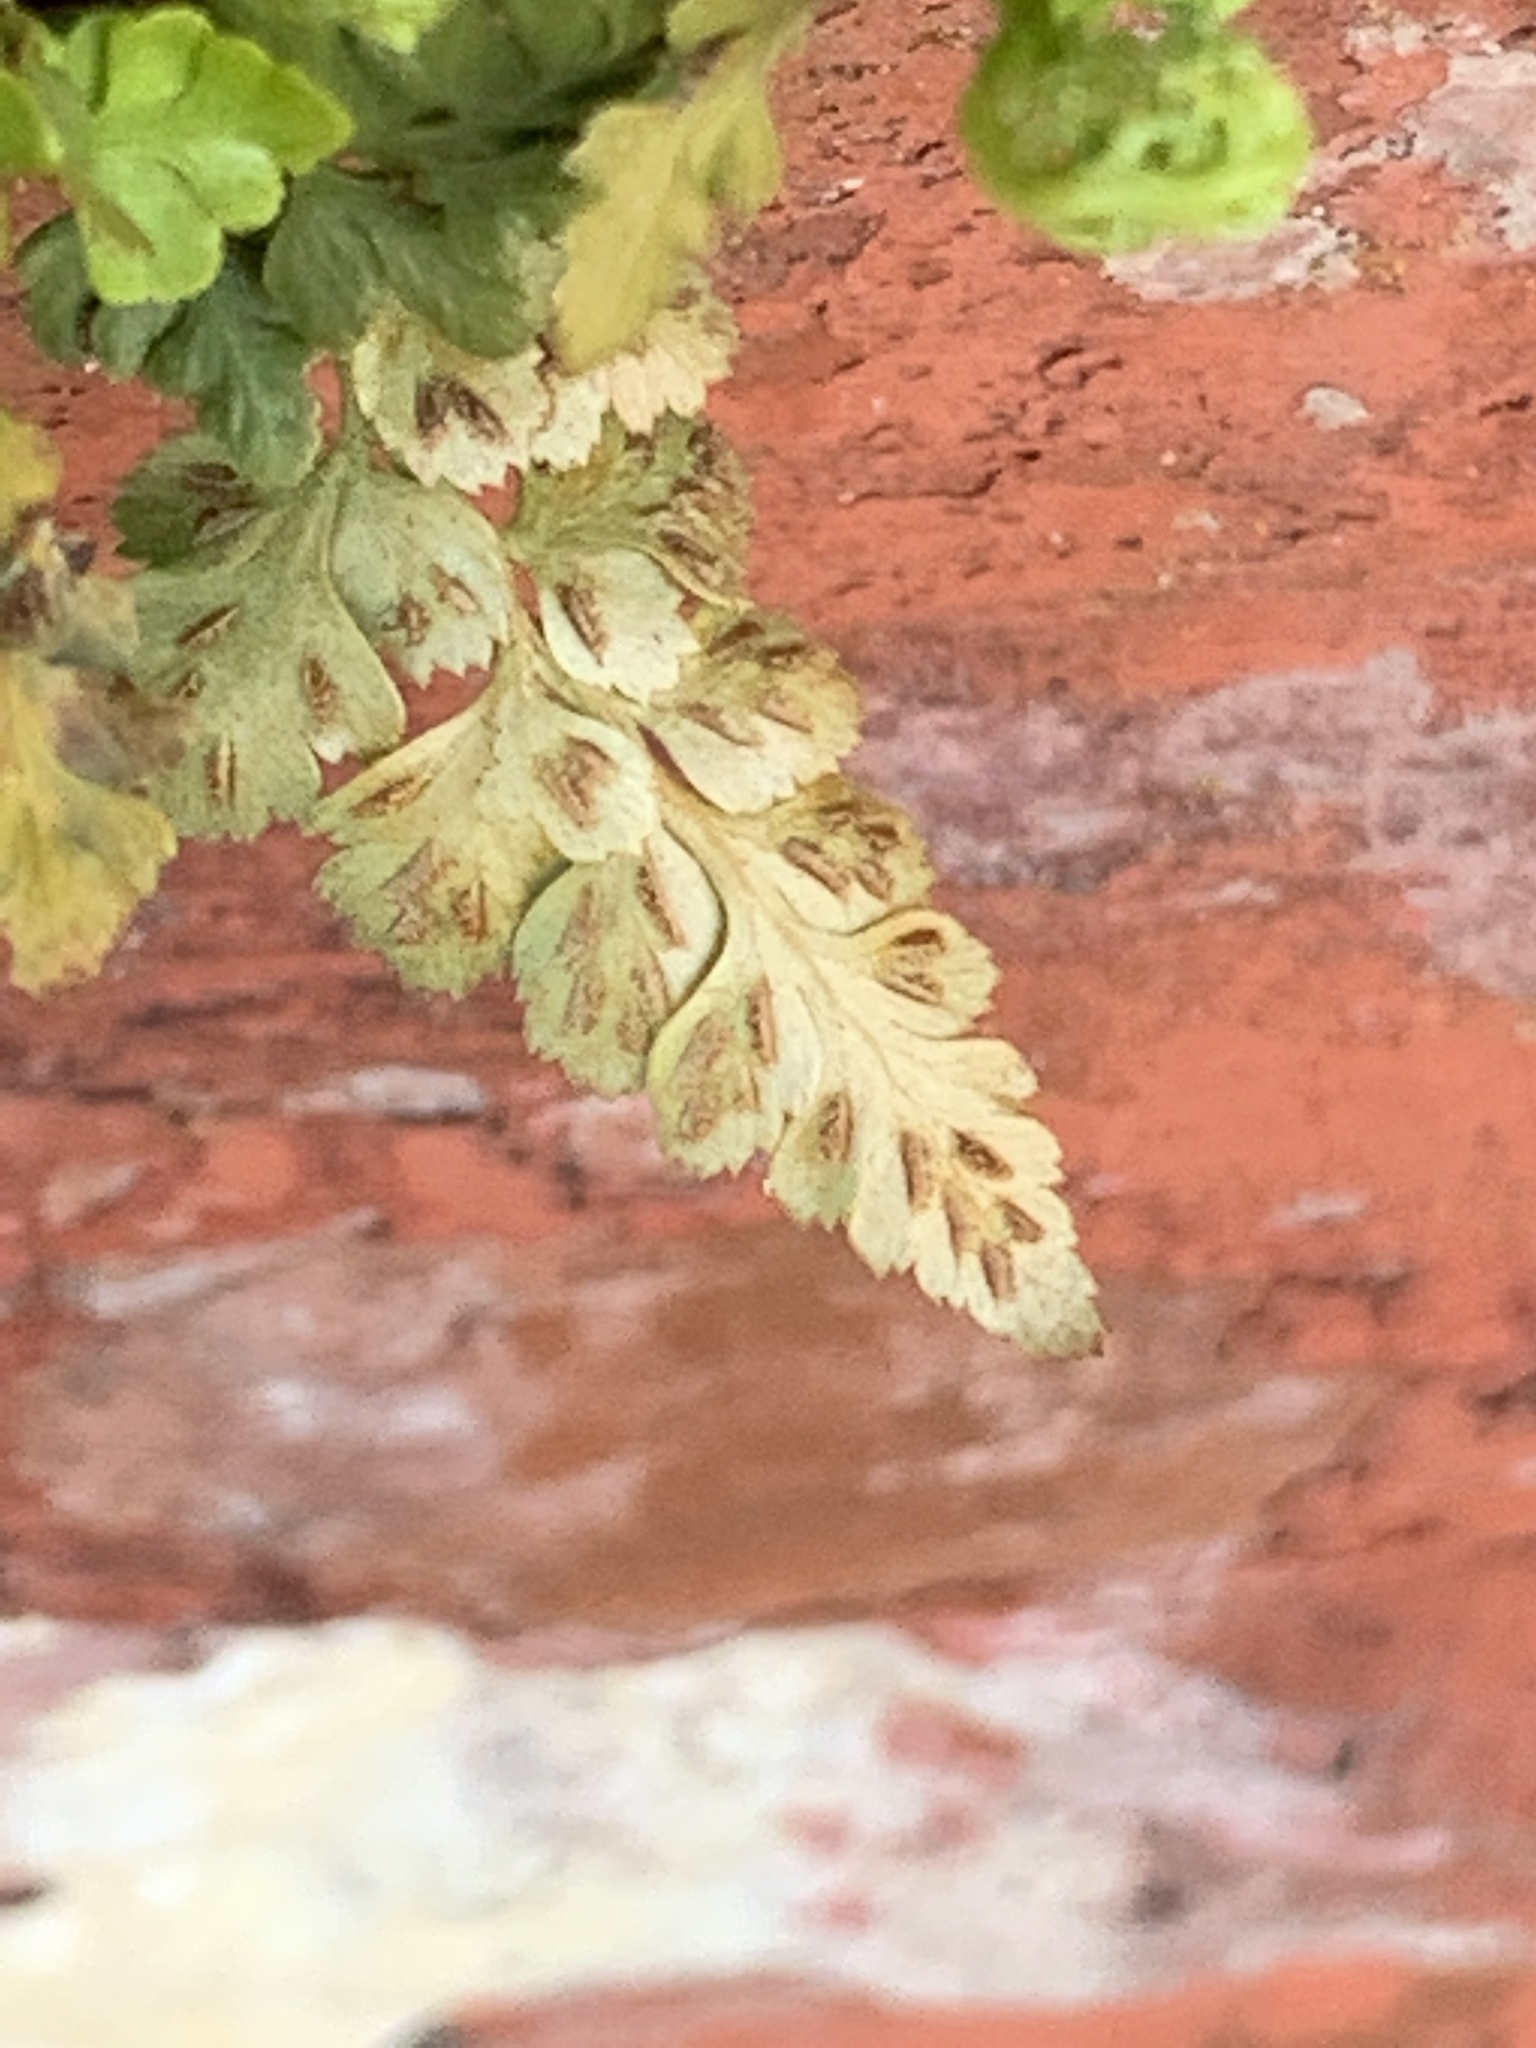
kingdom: Plantae
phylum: Tracheophyta
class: Polypodiopsida
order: Polypodiales
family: Aspleniaceae
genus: Asplenium
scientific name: Asplenium adiantum-nigrum
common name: Black spleenwort
